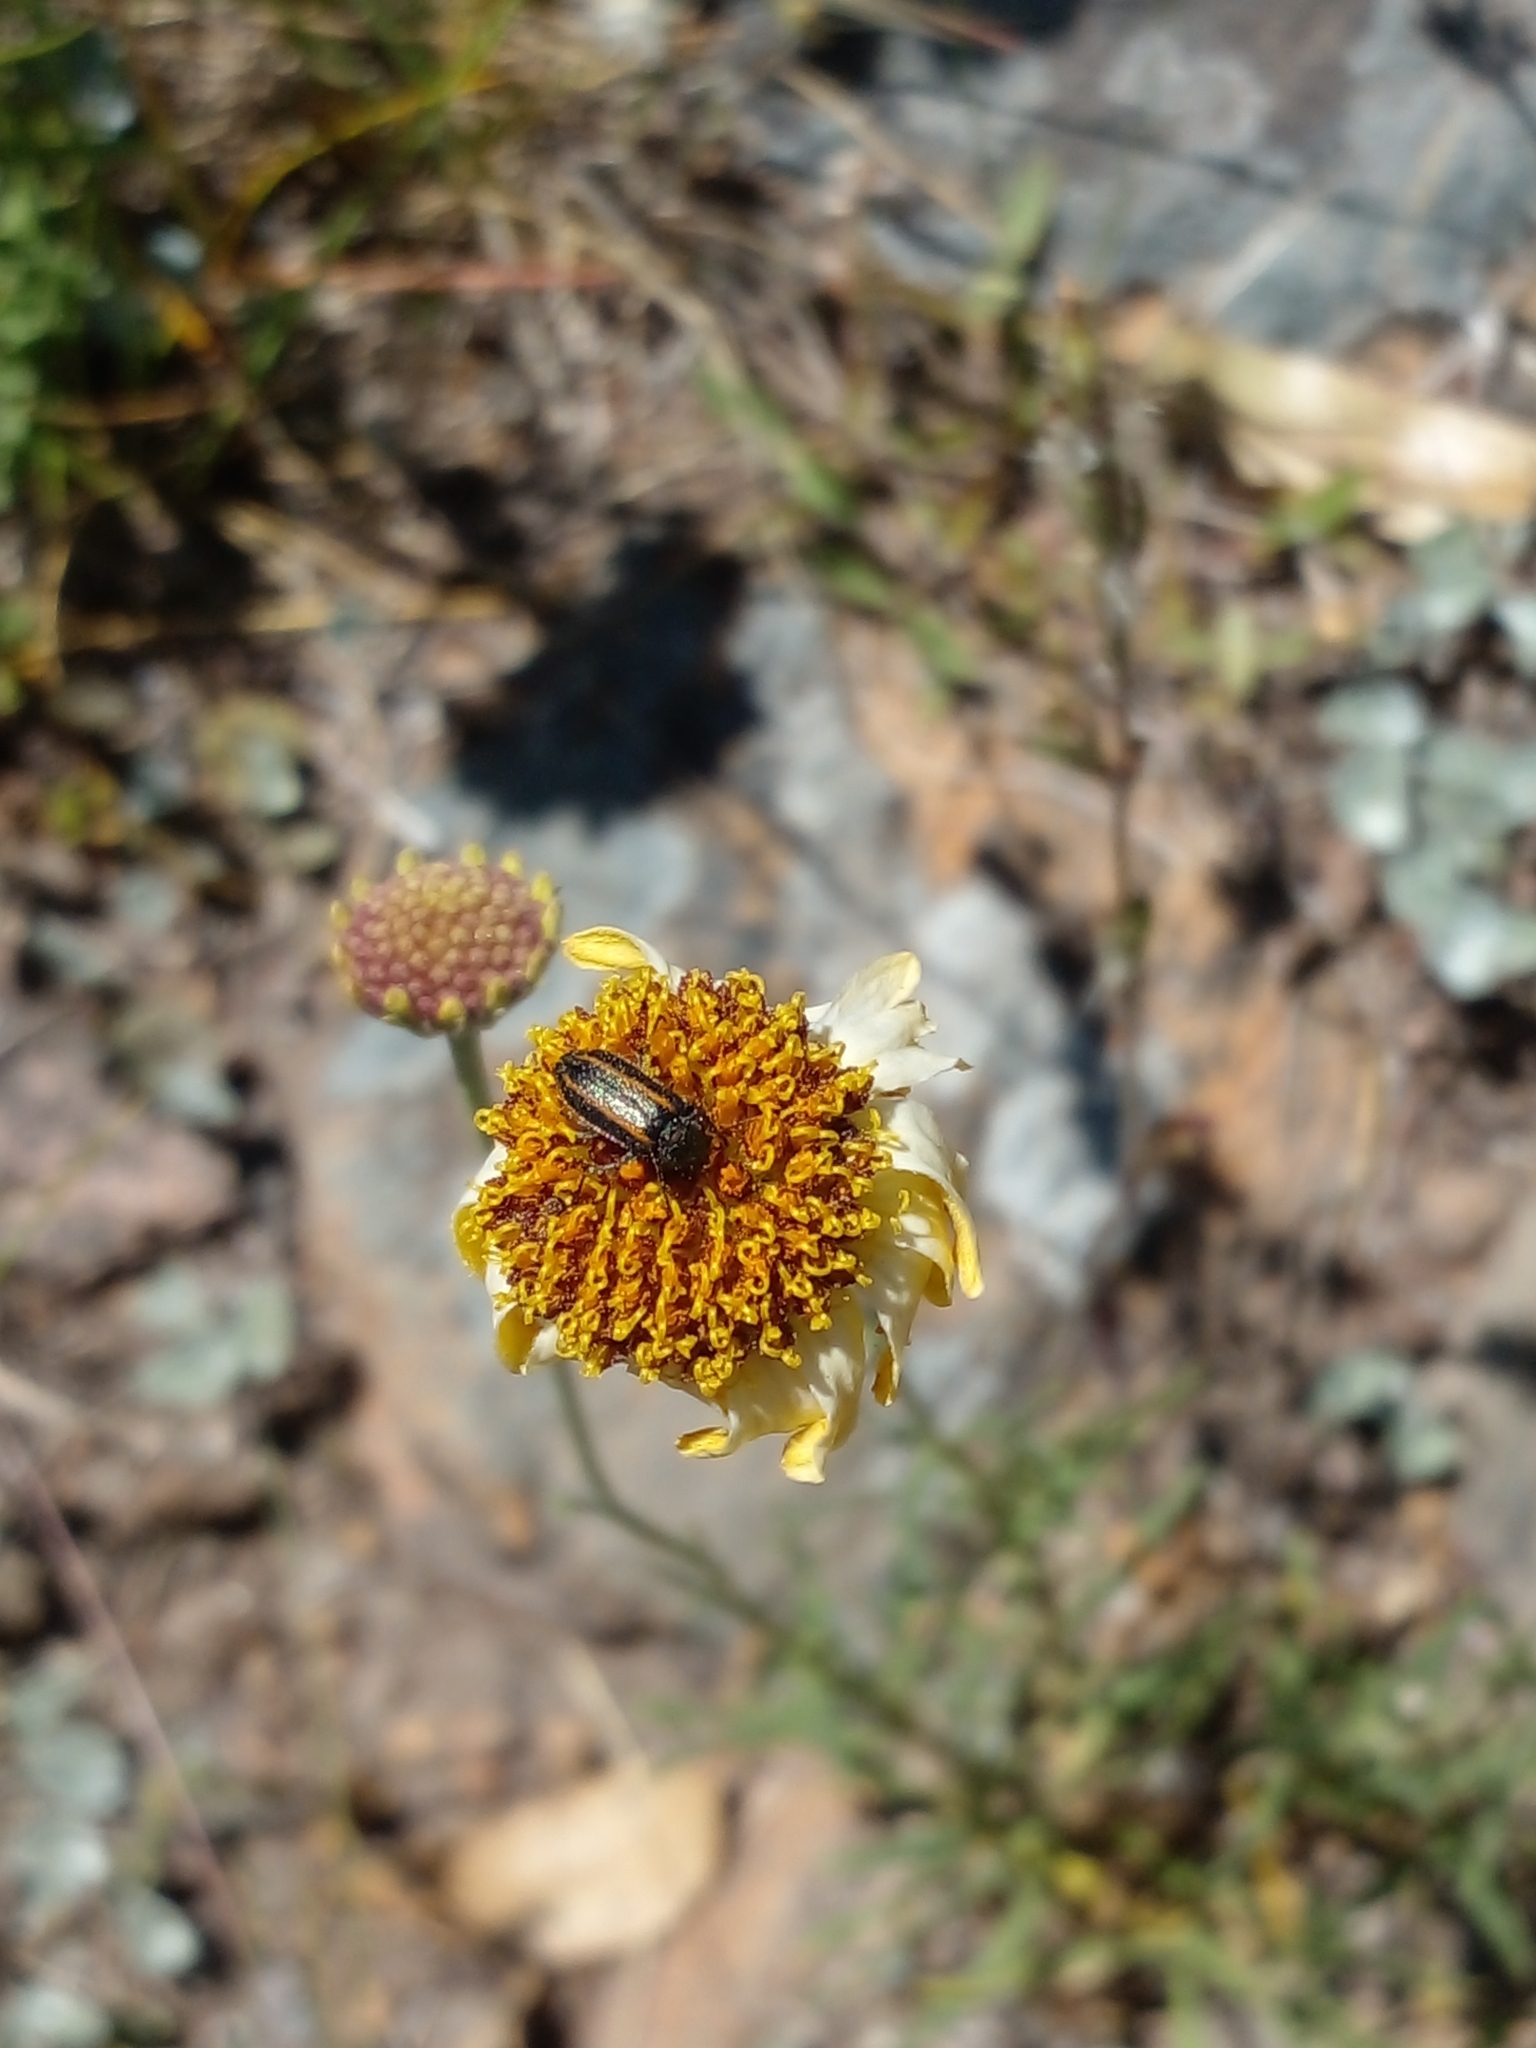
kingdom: Animalia
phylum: Arthropoda
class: Insecta
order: Coleoptera
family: Melyridae
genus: Astylus
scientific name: Astylus
